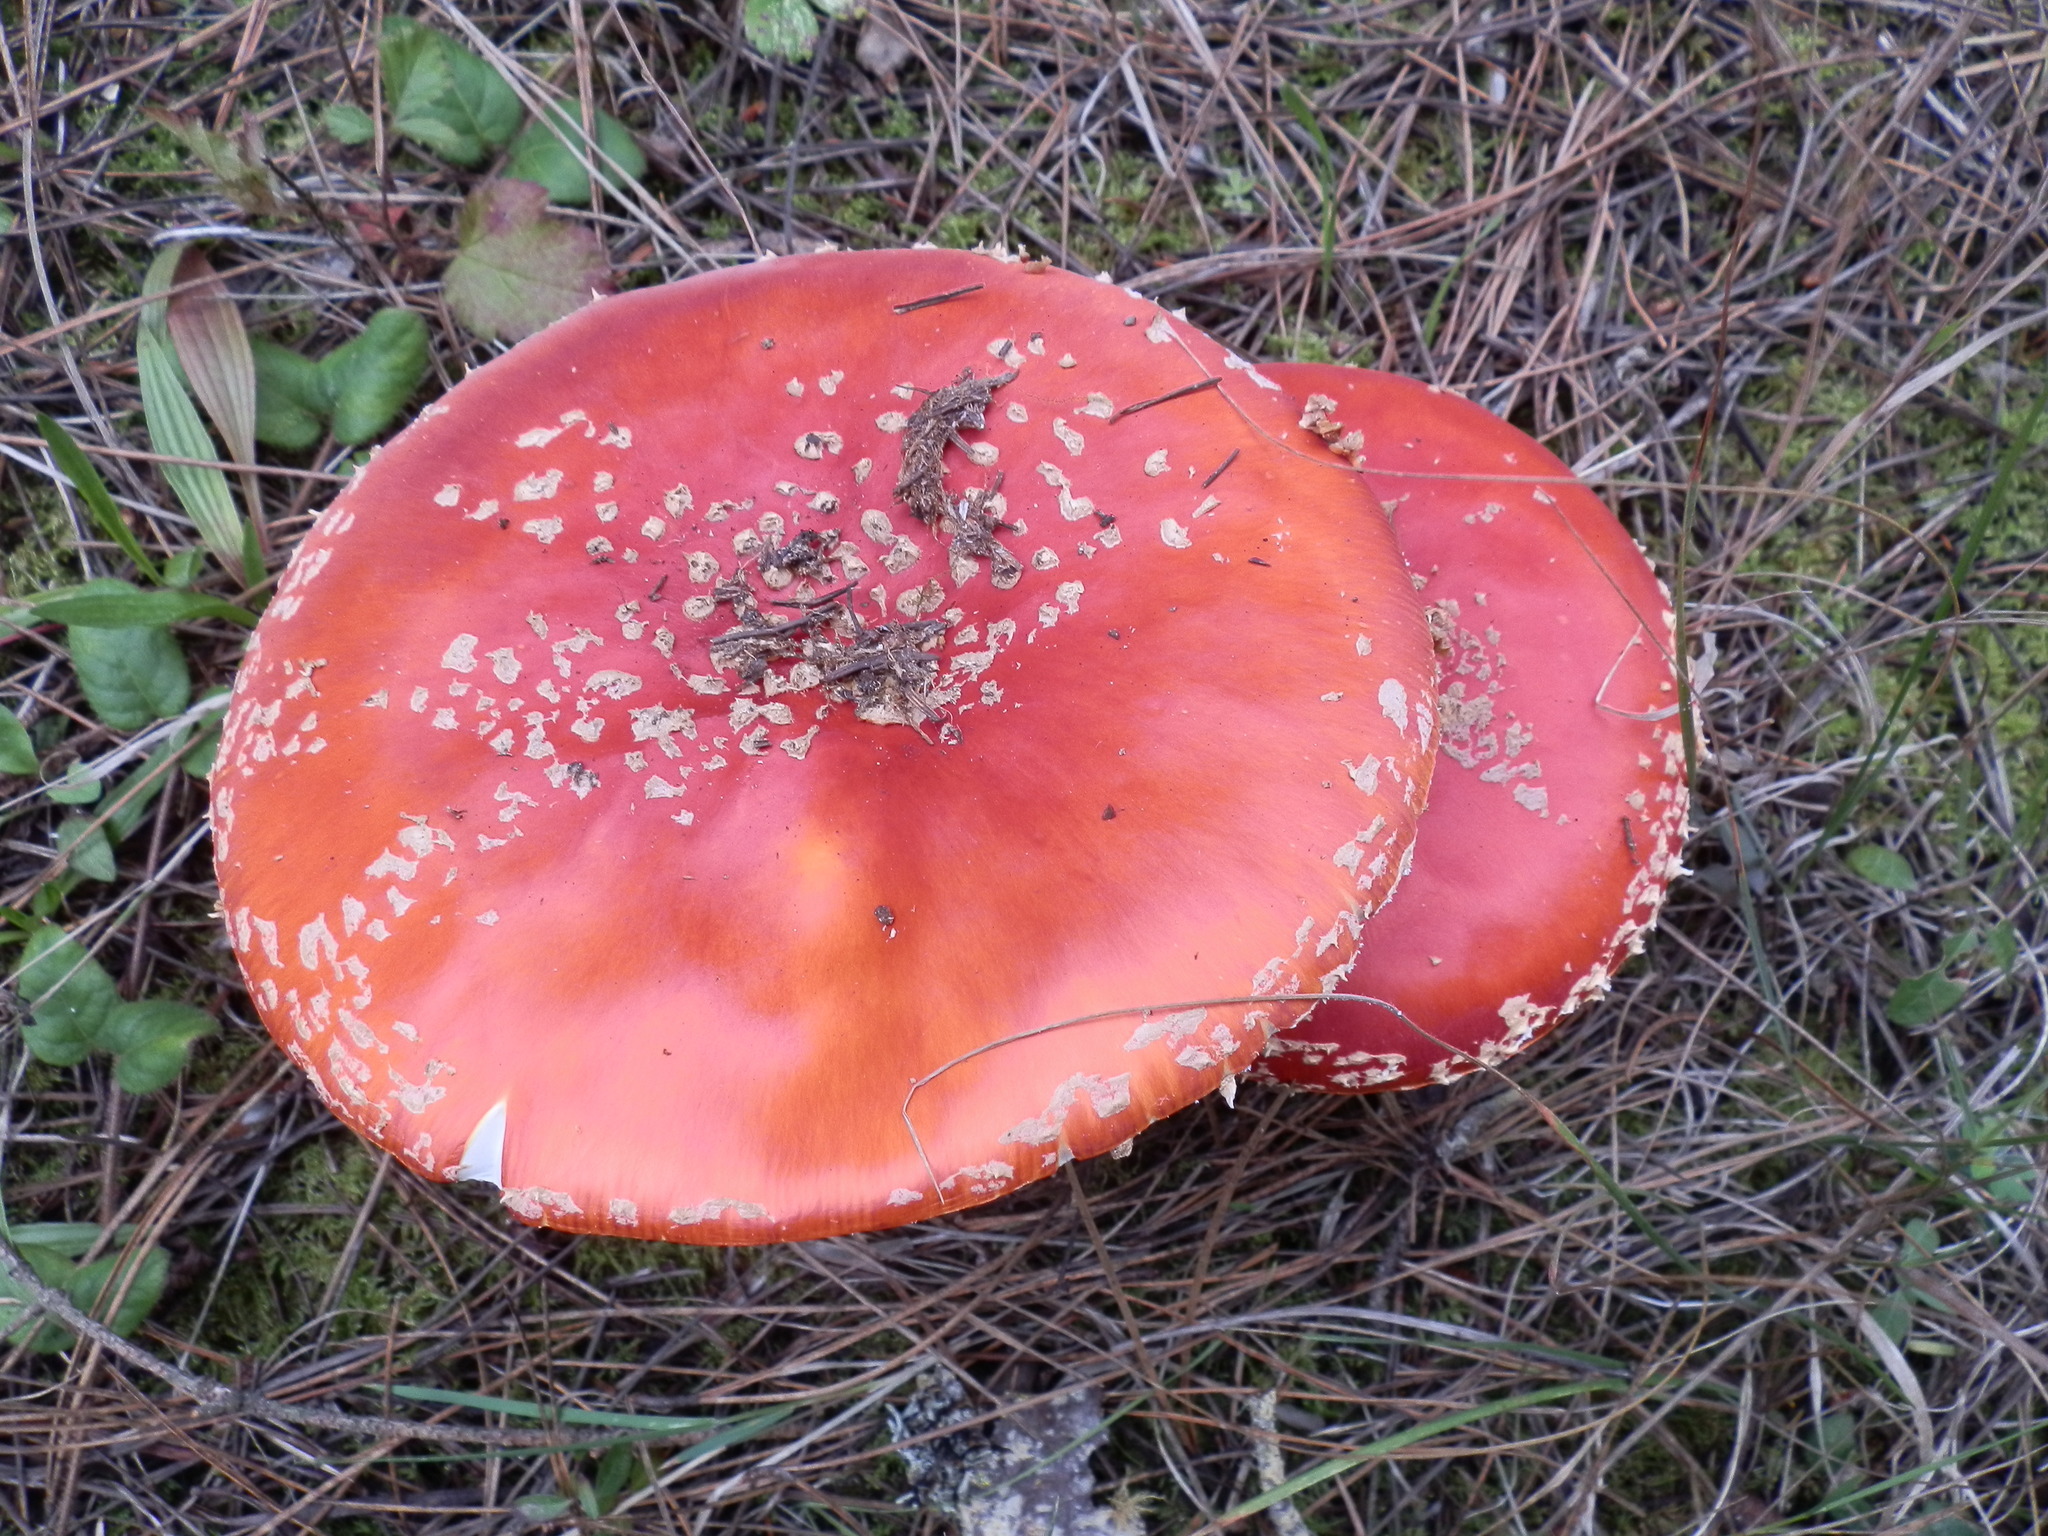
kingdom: Fungi
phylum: Basidiomycota
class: Agaricomycetes
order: Agaricales
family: Amanitaceae
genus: Amanita
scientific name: Amanita muscaria
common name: Fly agaric
